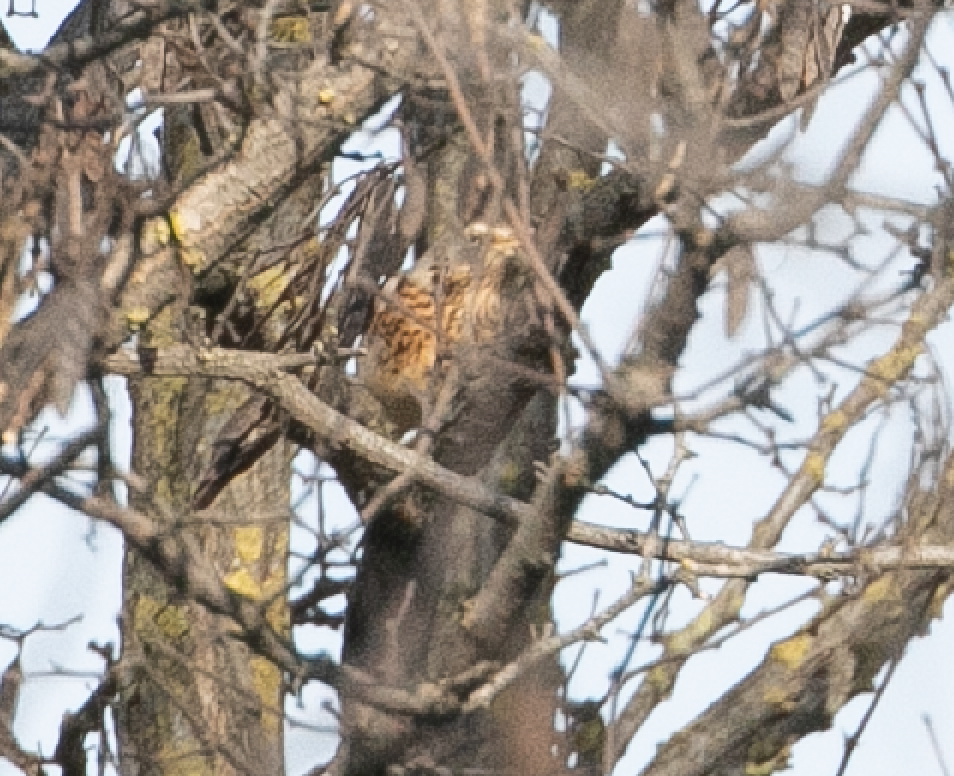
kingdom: Animalia
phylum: Chordata
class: Aves
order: Passeriformes
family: Turdidae
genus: Turdus
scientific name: Turdus pilaris
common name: Fieldfare
